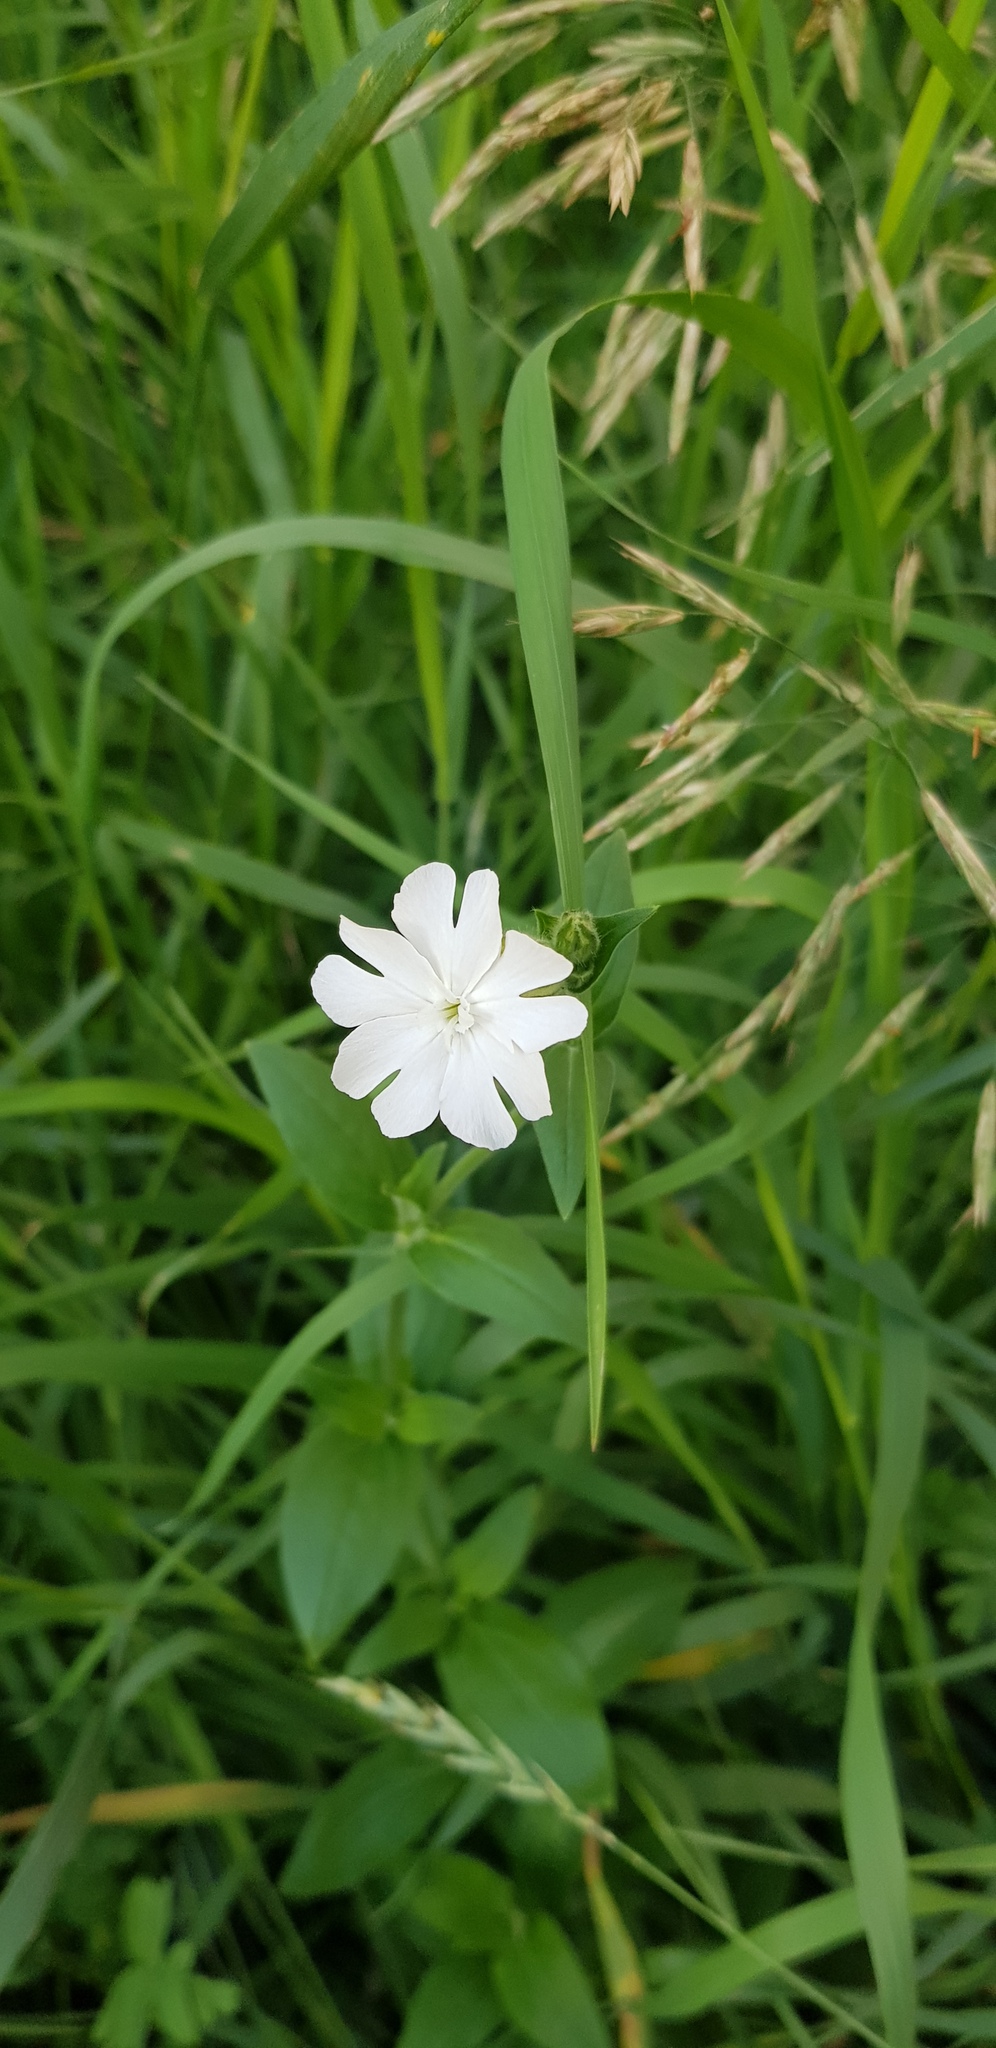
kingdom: Plantae
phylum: Tracheophyta
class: Magnoliopsida
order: Caryophyllales
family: Caryophyllaceae
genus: Silene
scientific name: Silene latifolia
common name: White campion
